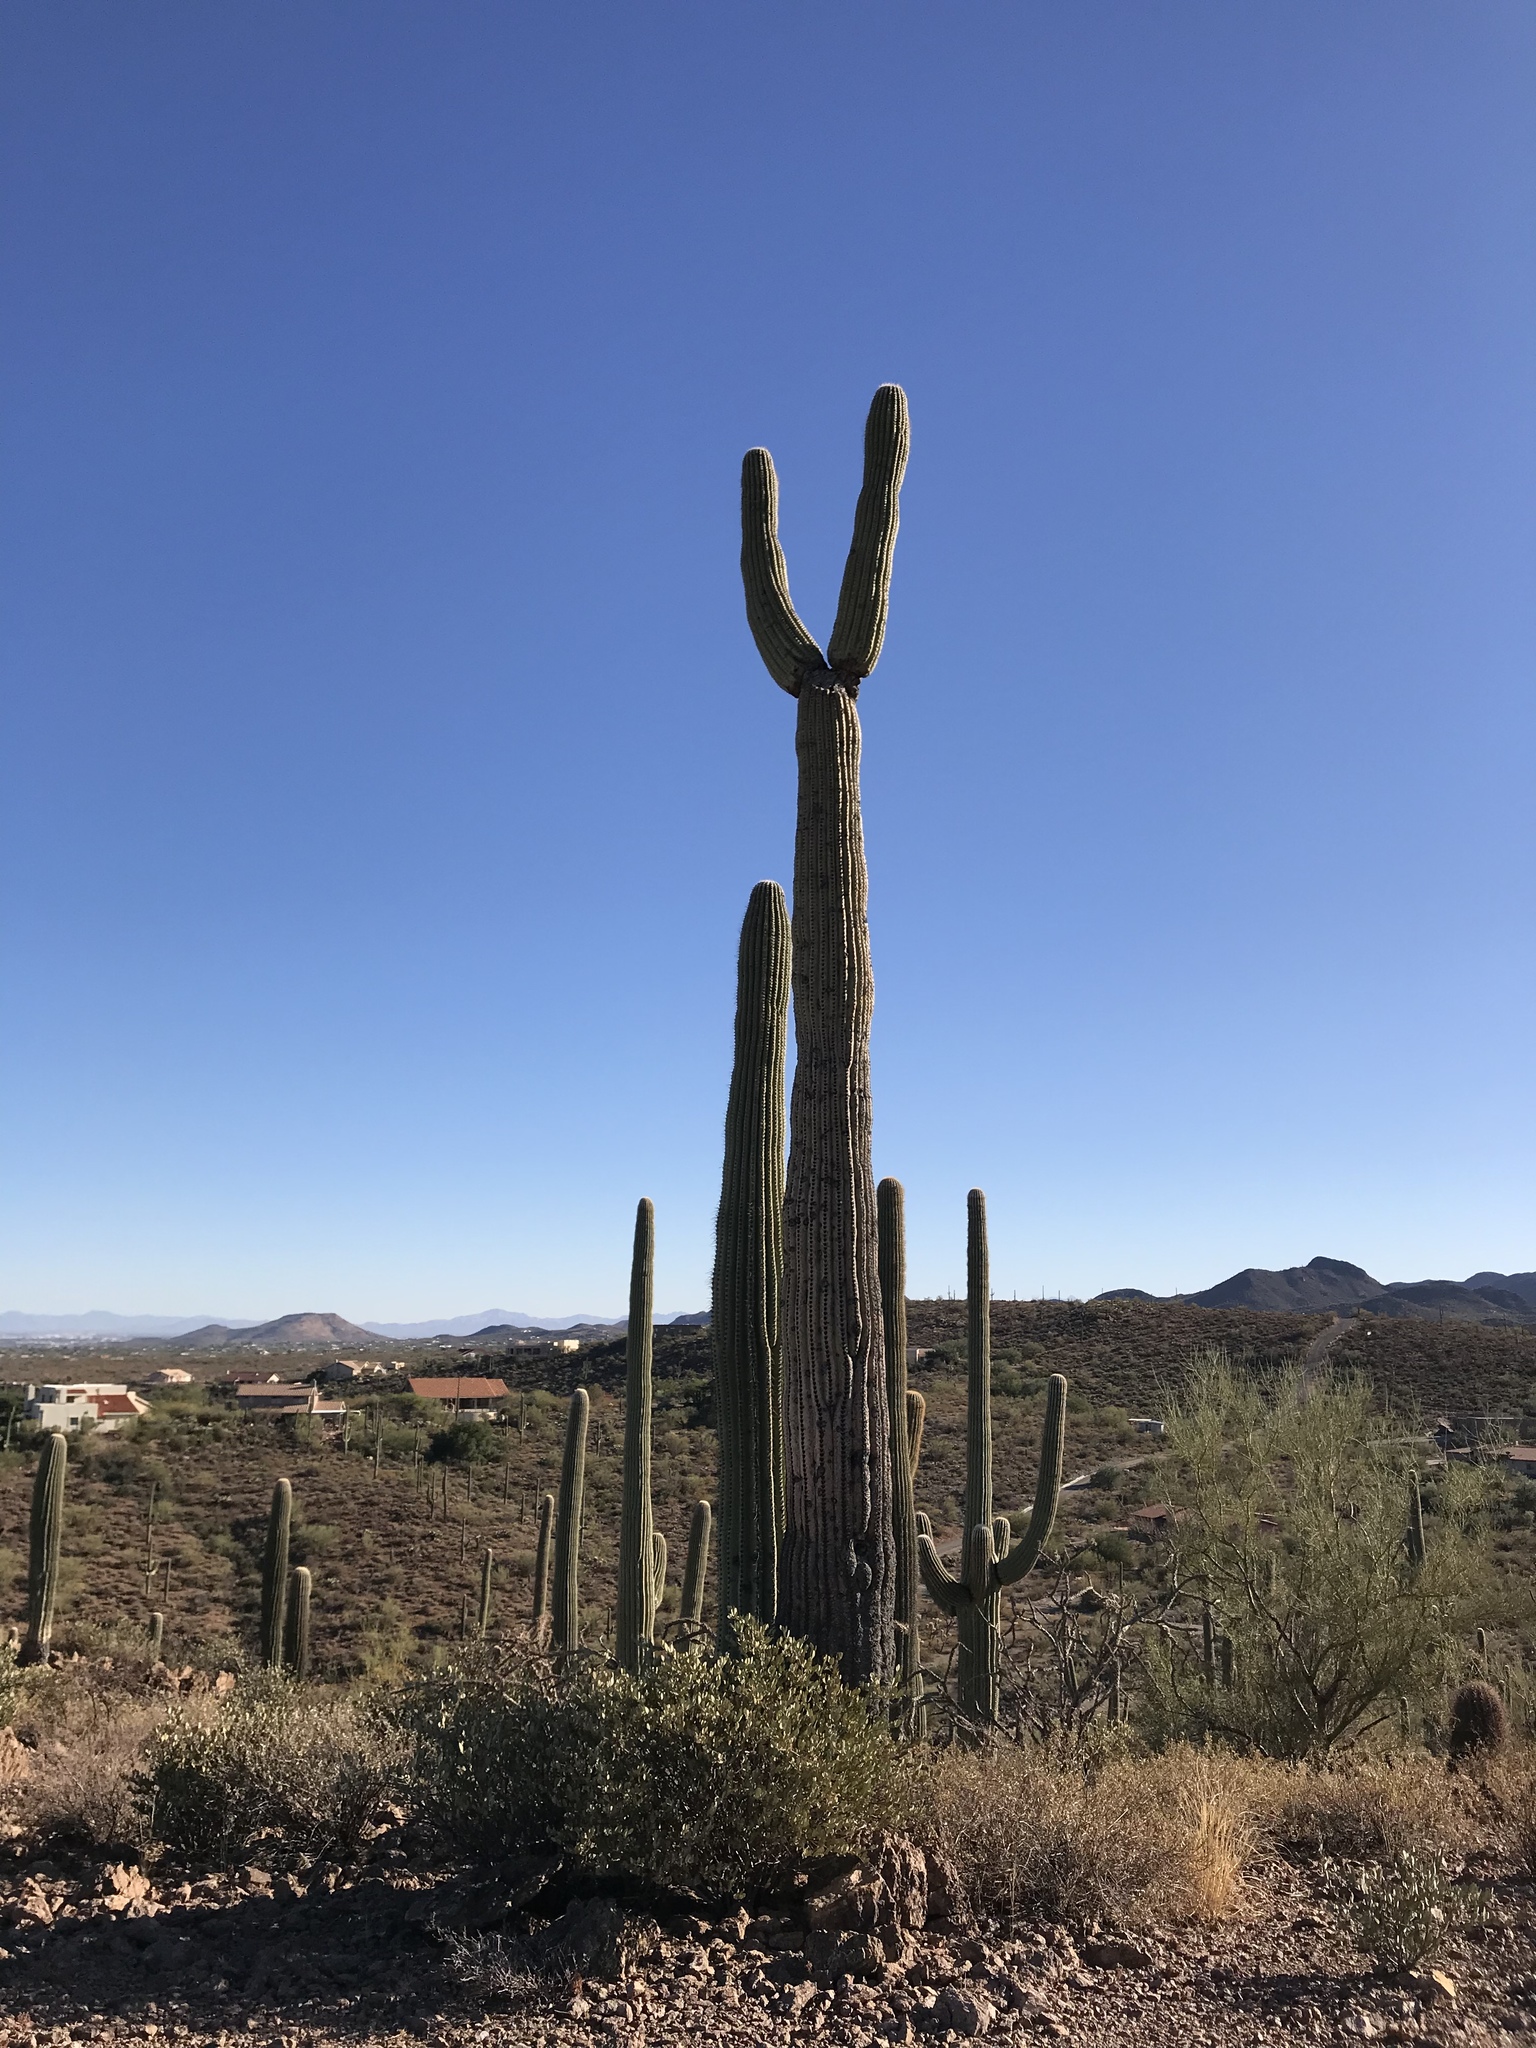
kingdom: Plantae
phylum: Tracheophyta
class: Magnoliopsida
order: Caryophyllales
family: Cactaceae
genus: Carnegiea
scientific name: Carnegiea gigantea
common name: Saguaro
